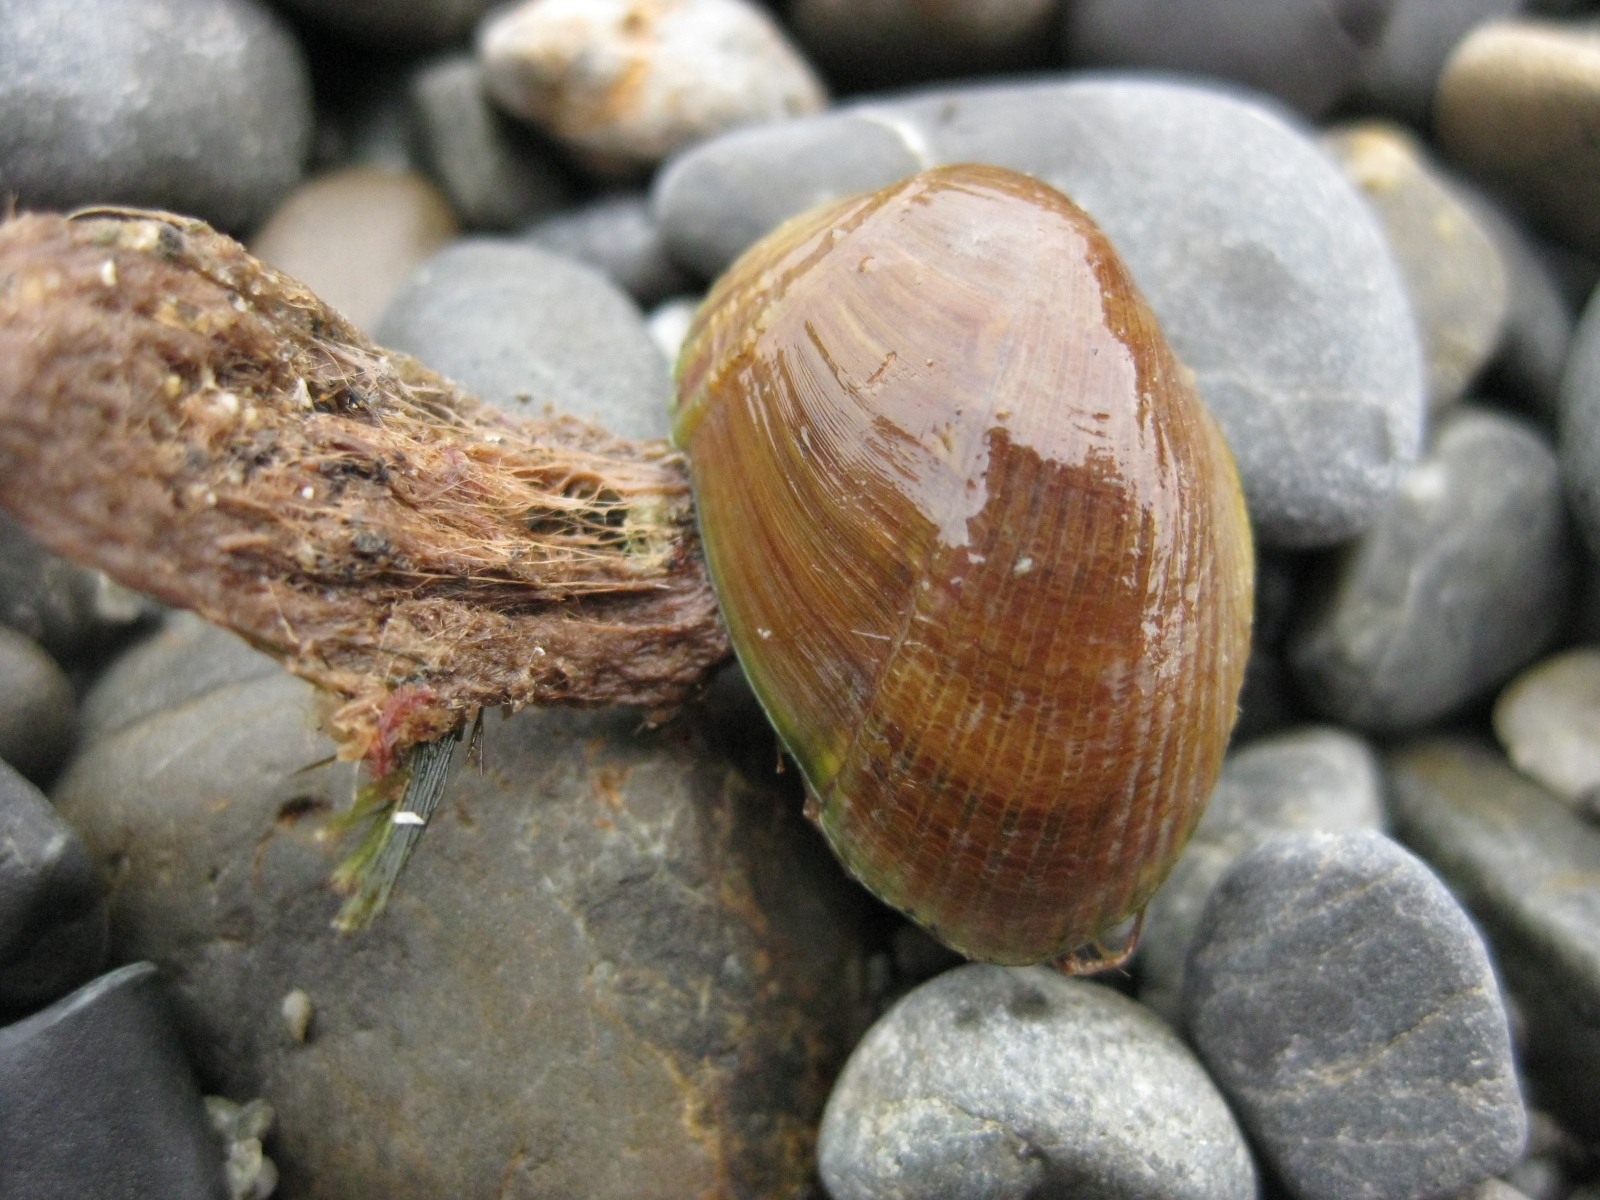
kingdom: Animalia
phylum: Mollusca
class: Bivalvia
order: Mytilida
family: Mytilidae
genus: Musculus
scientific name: Musculus impactus
